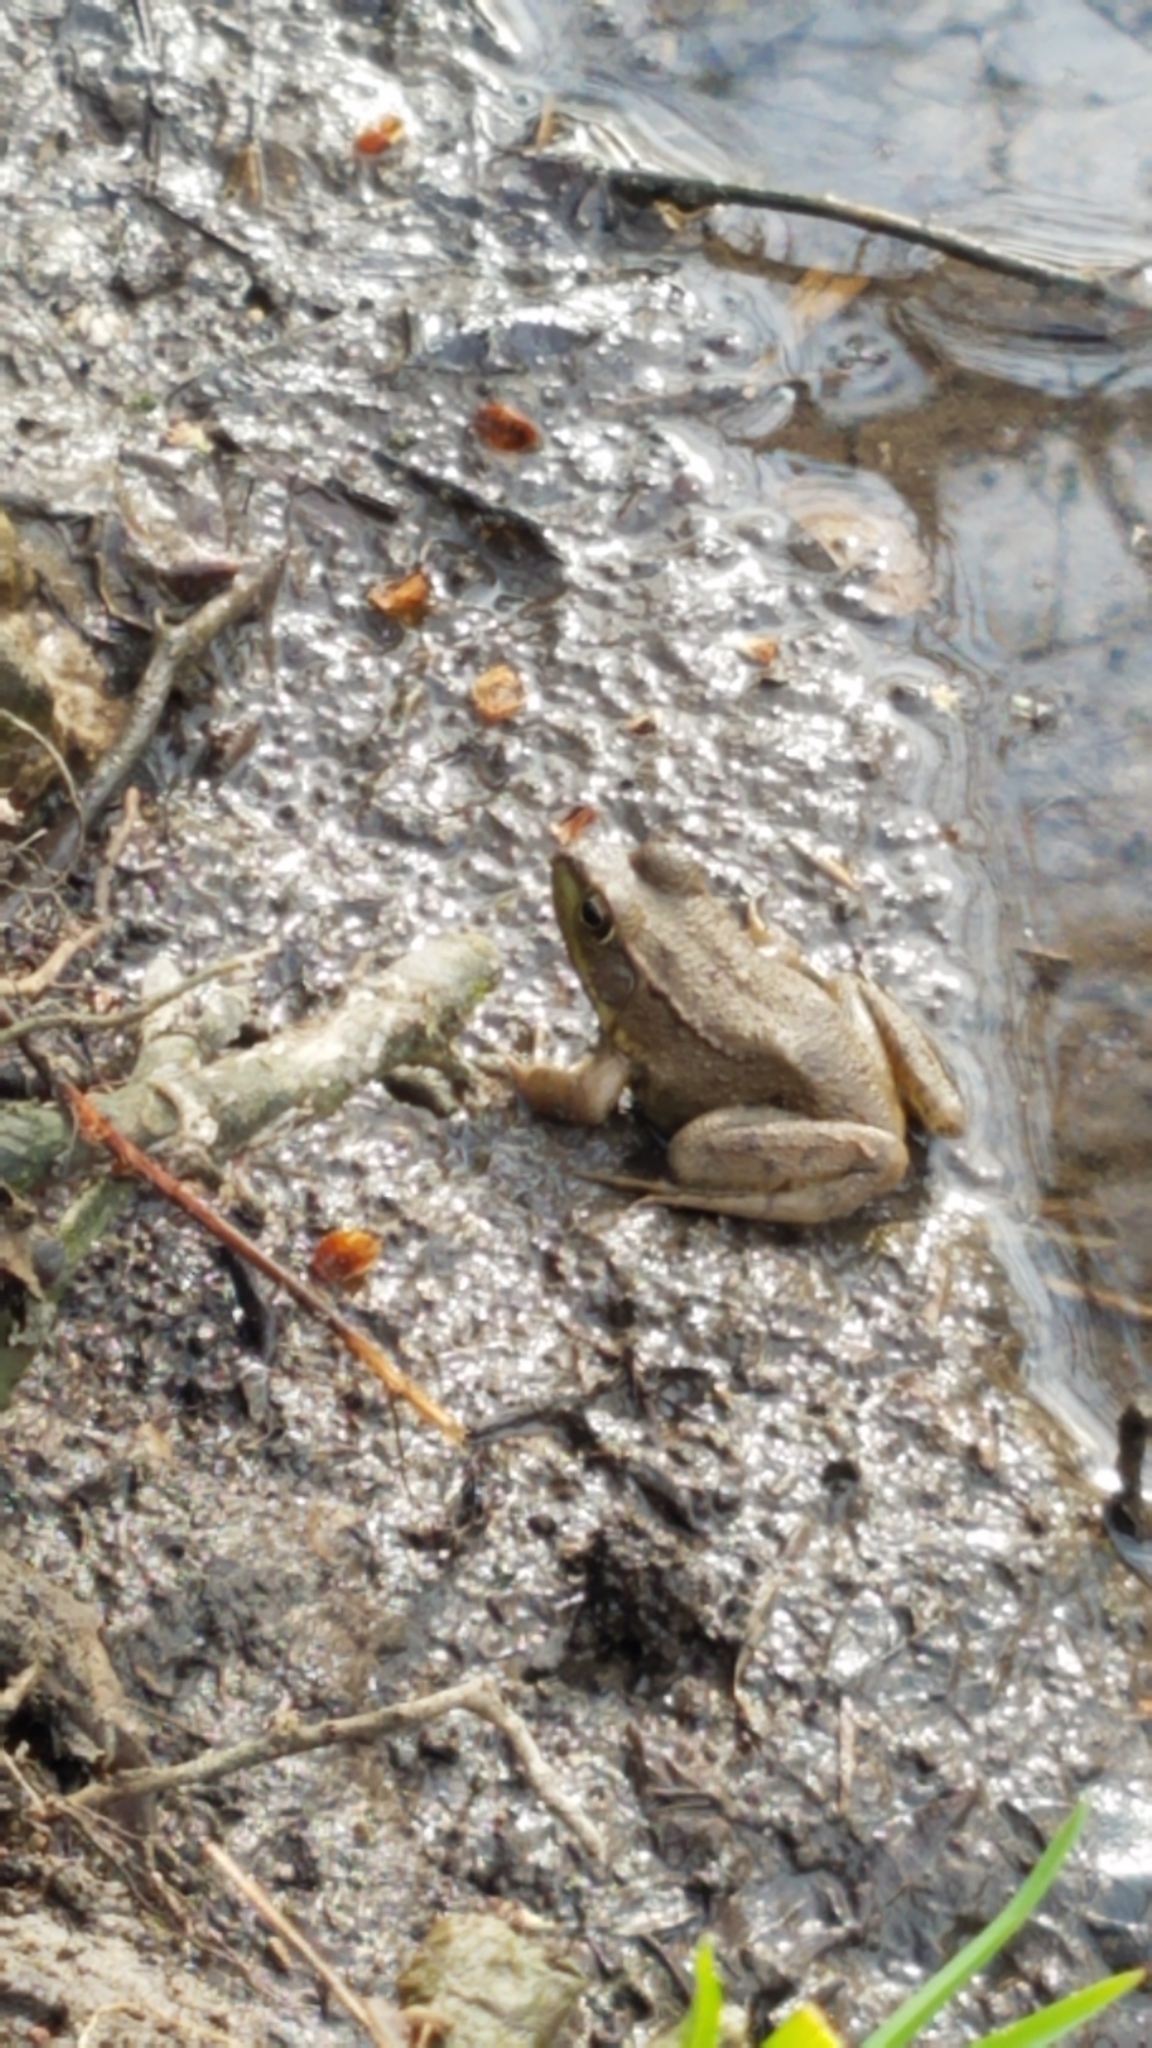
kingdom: Animalia
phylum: Chordata
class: Amphibia
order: Anura
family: Ranidae
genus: Lithobates
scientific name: Lithobates clamitans
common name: Green frog
